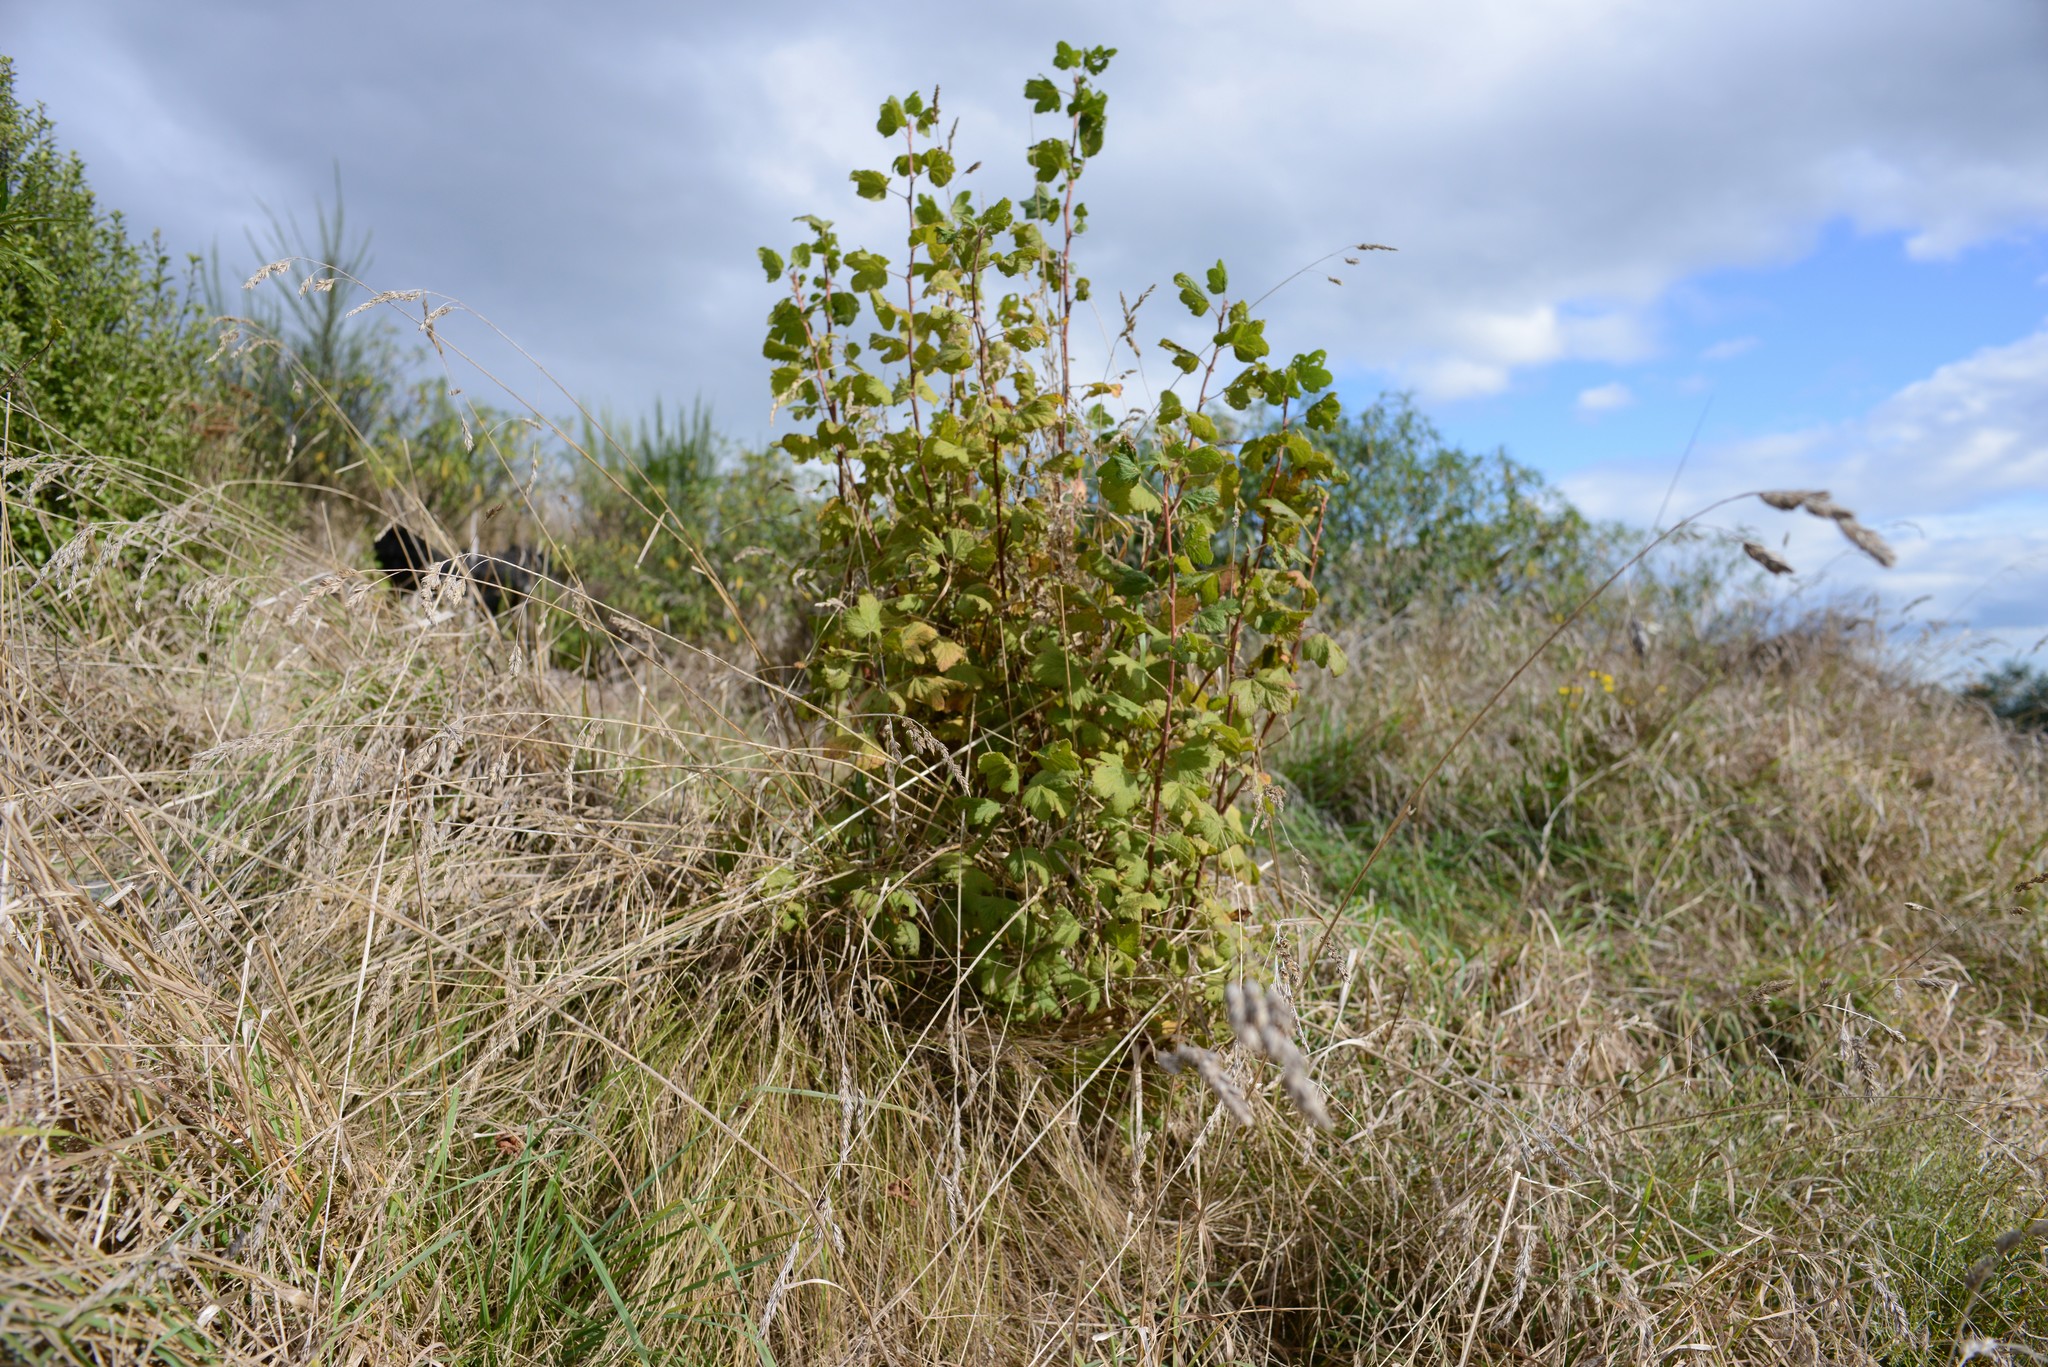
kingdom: Plantae
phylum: Tracheophyta
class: Magnoliopsida
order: Saxifragales
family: Grossulariaceae
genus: Ribes
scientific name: Ribes sanguineum
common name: Flowering currant
